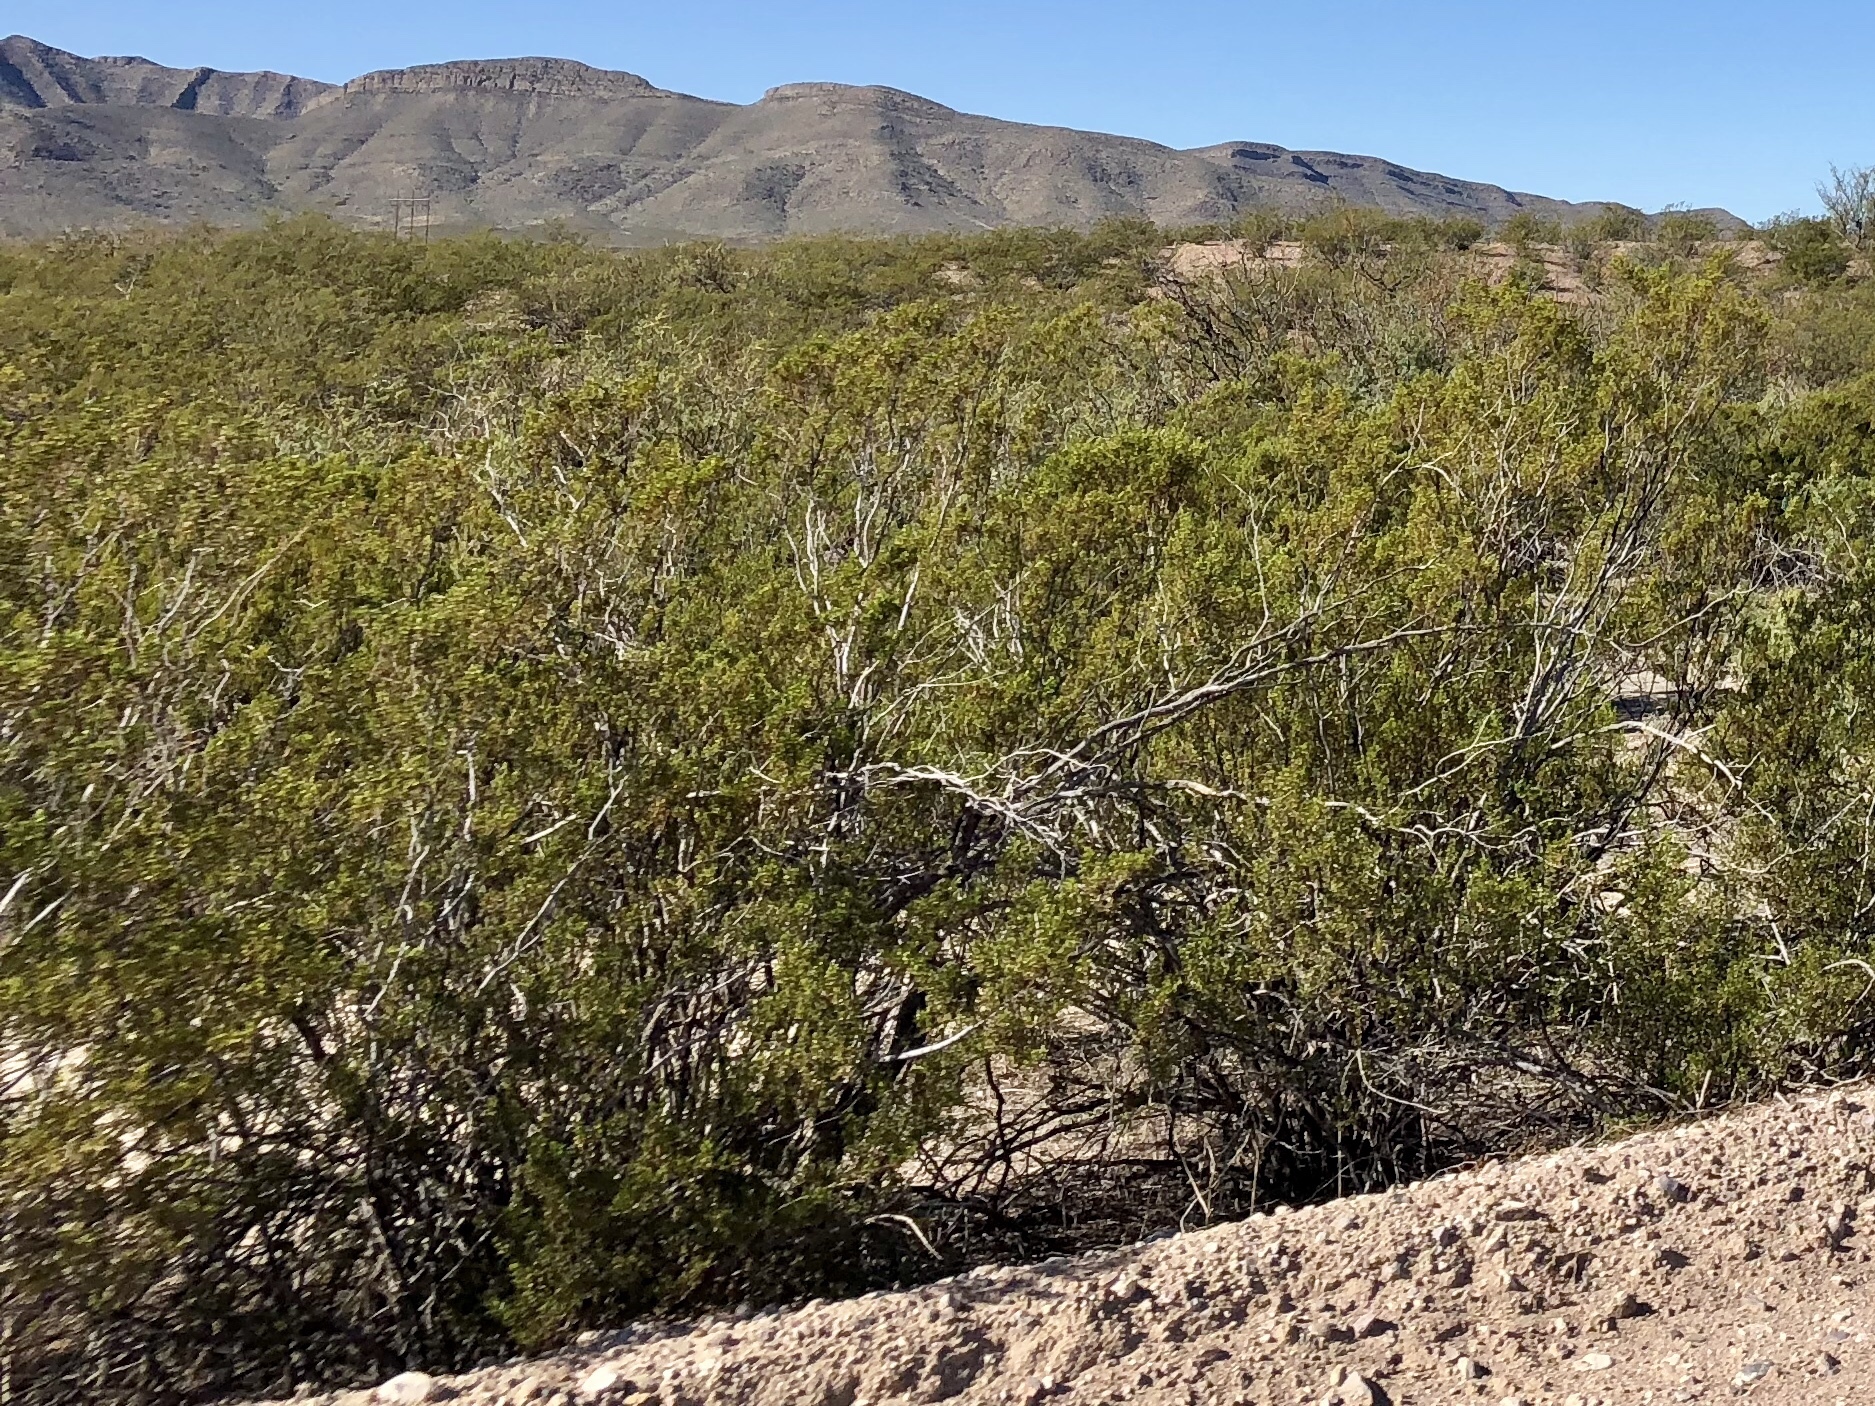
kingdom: Plantae
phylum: Tracheophyta
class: Magnoliopsida
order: Zygophyllales
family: Zygophyllaceae
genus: Larrea
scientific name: Larrea tridentata
